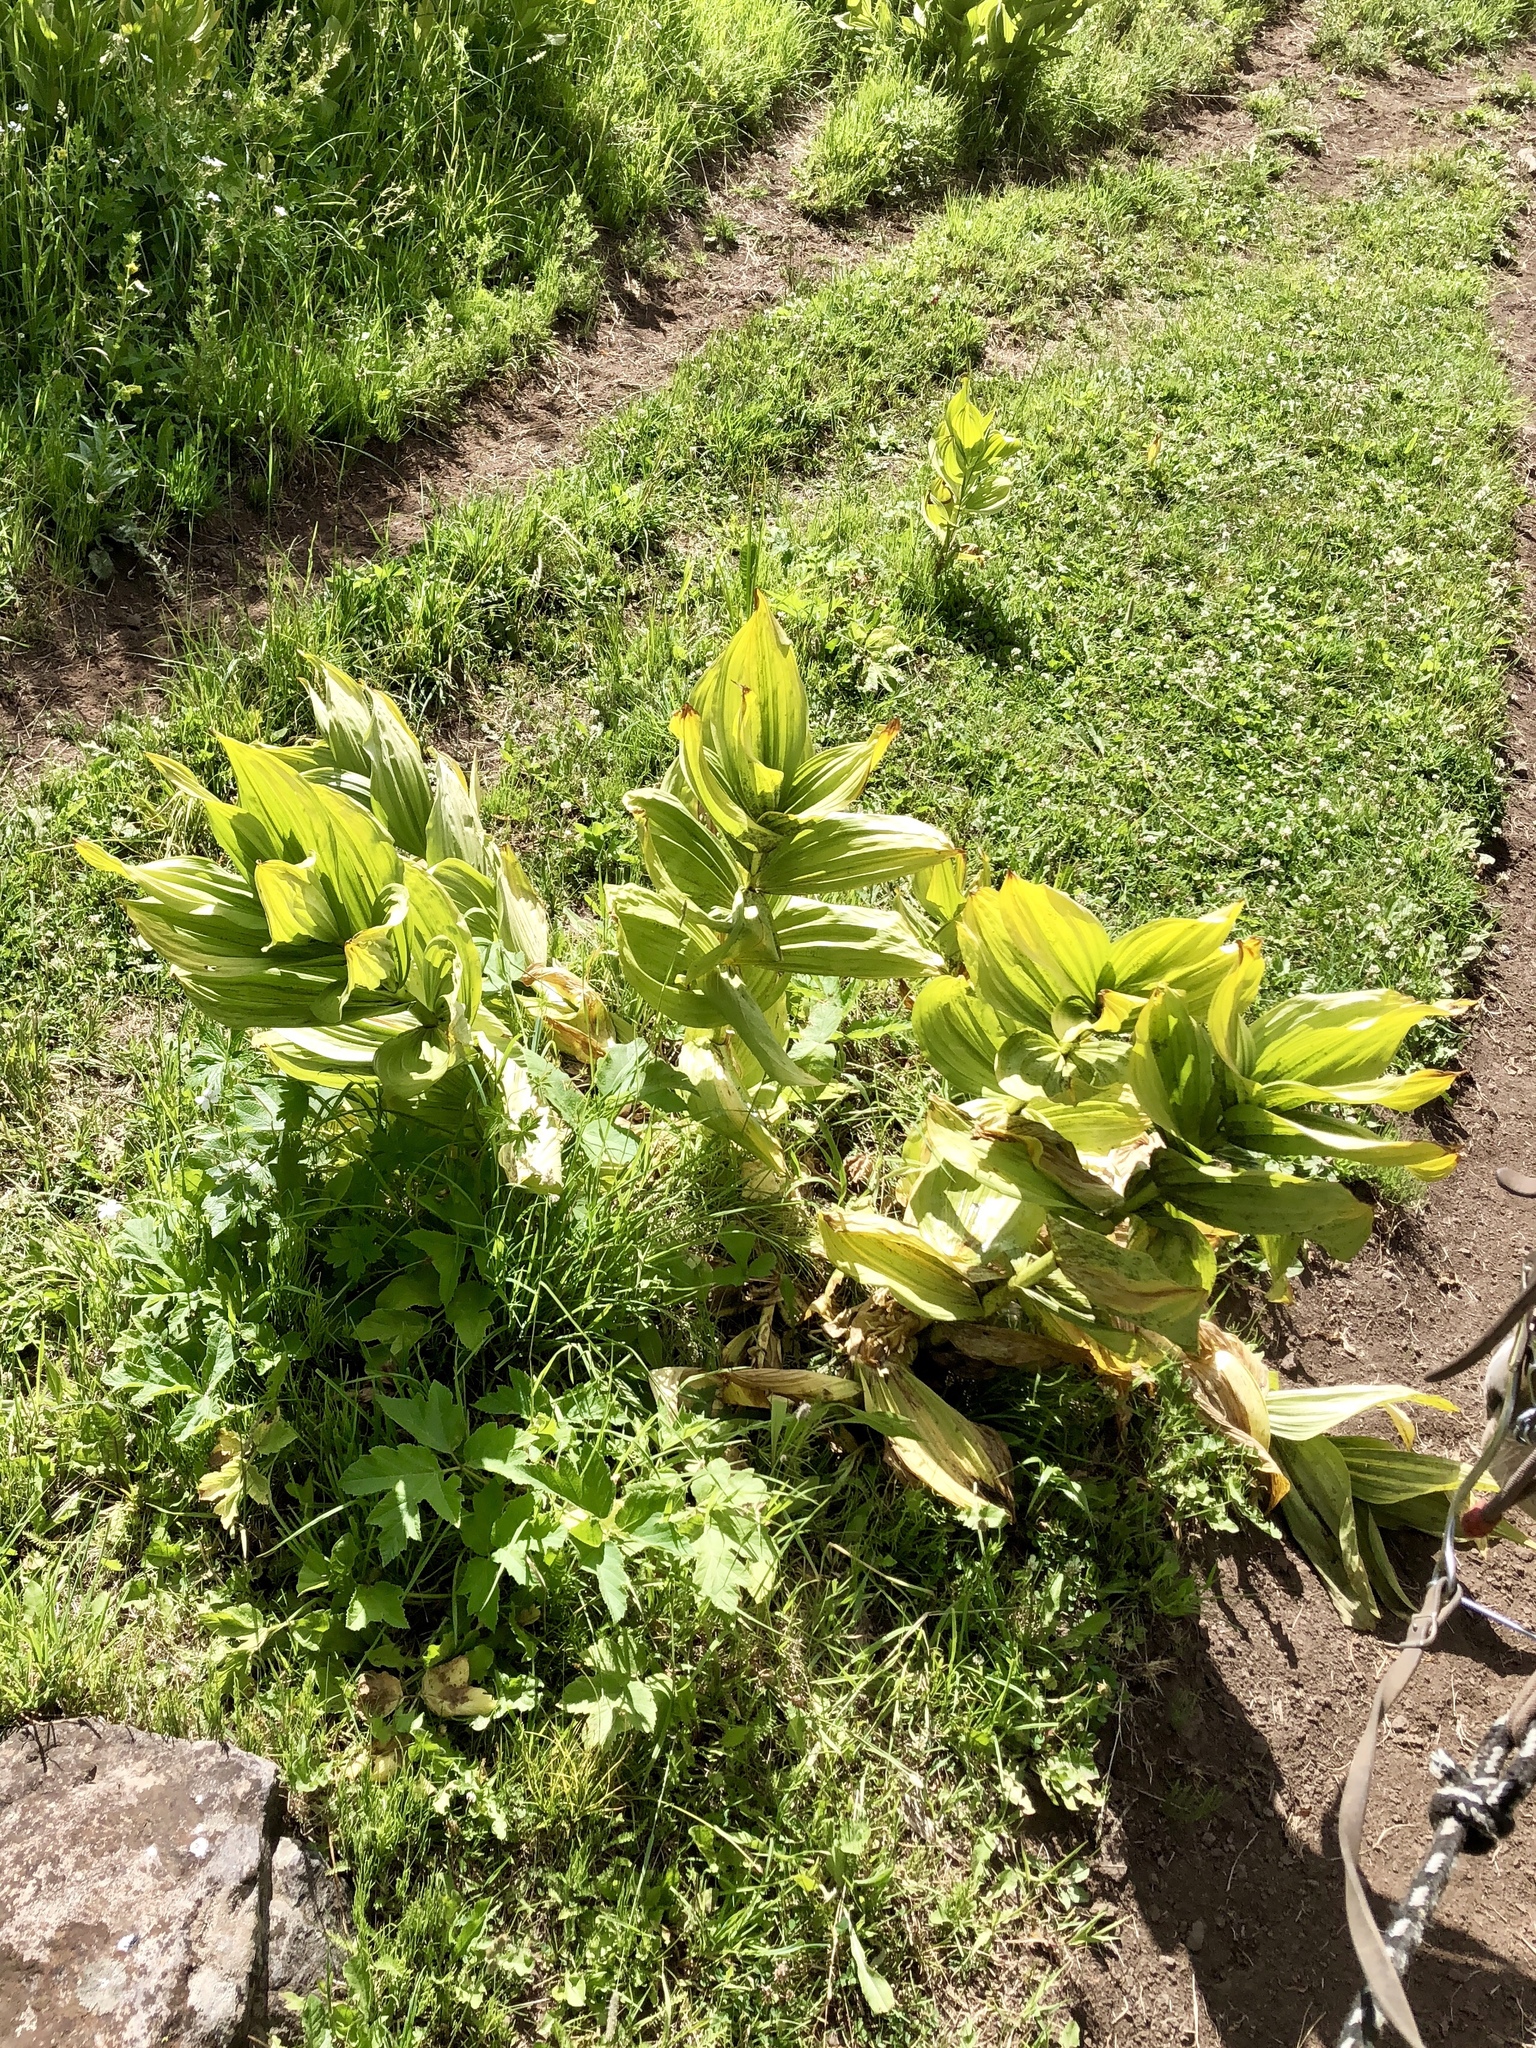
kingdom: Plantae
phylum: Tracheophyta
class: Liliopsida
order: Liliales
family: Melanthiaceae
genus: Veratrum
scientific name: Veratrum californicum
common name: California veratrum
